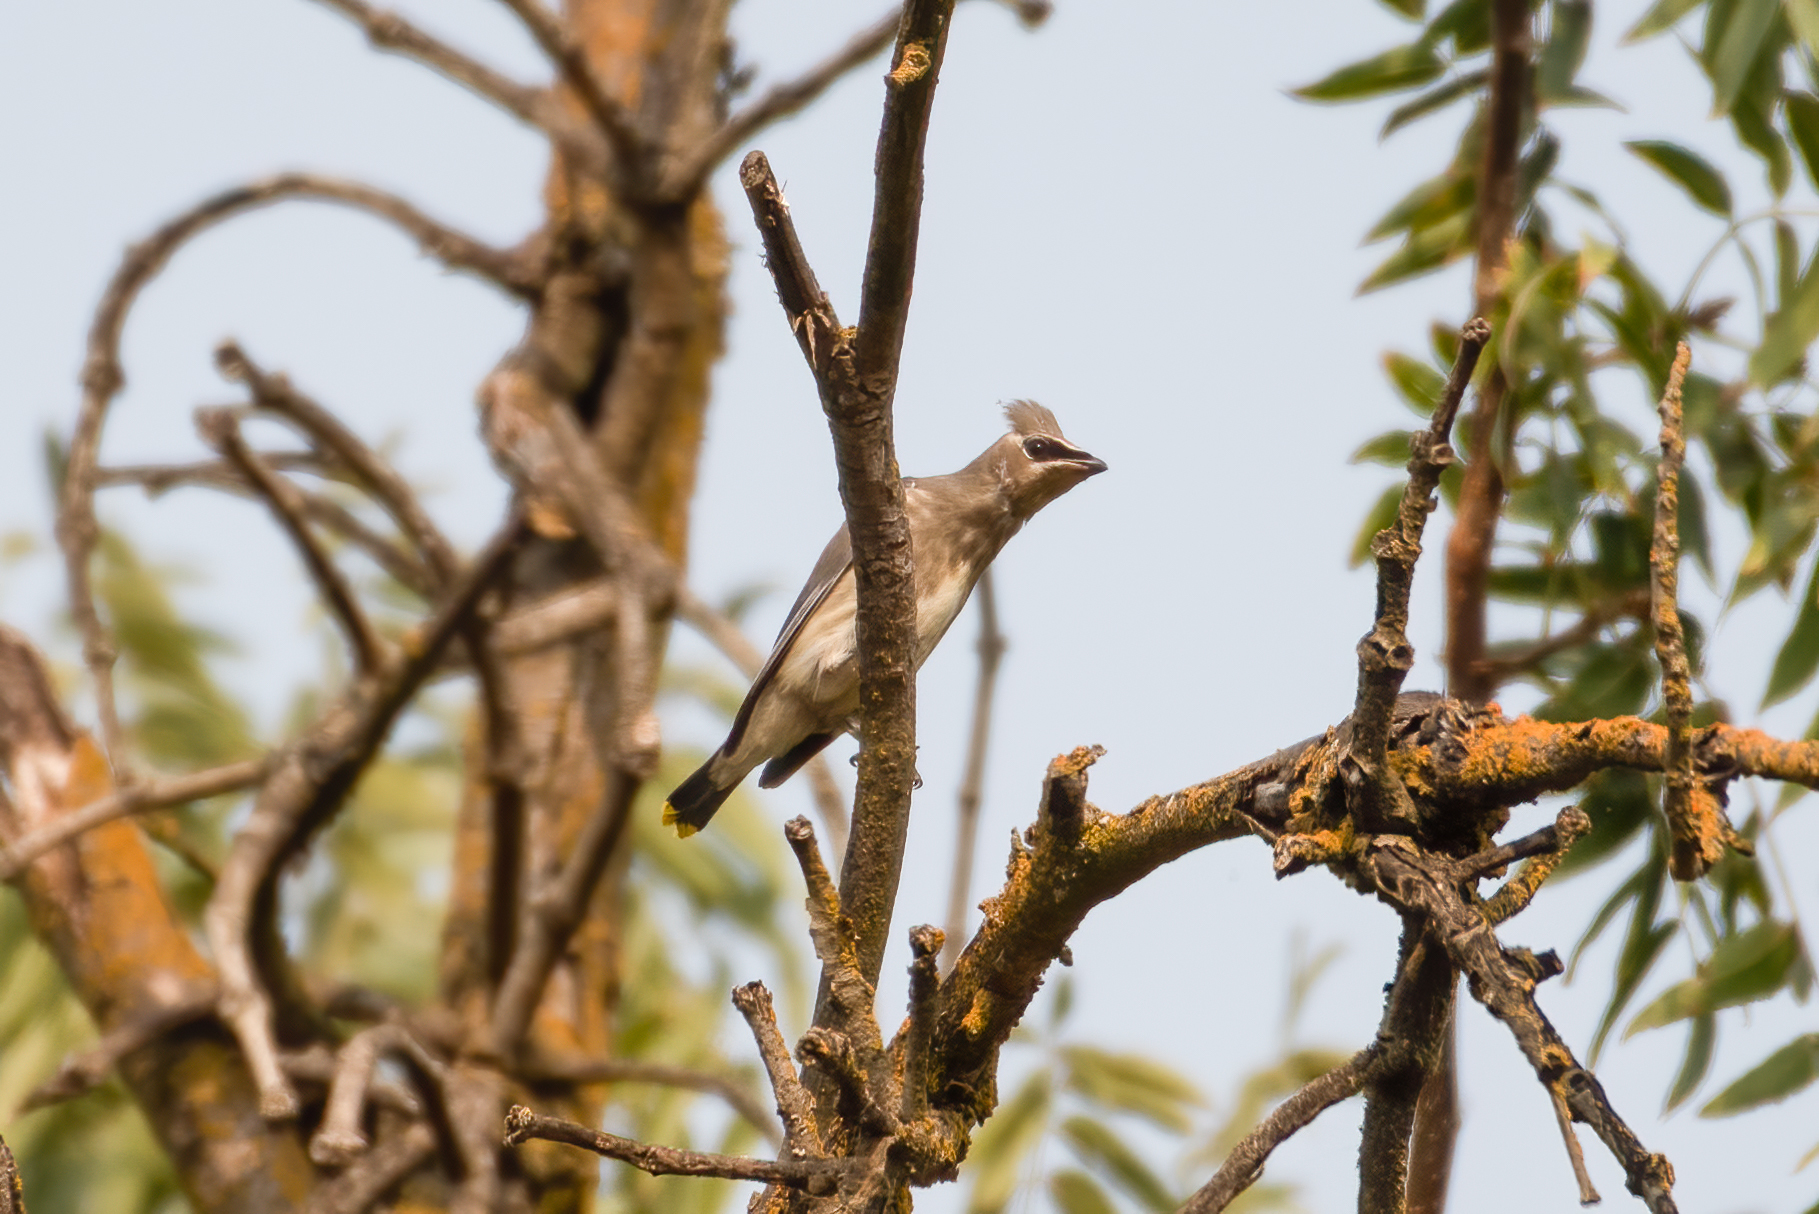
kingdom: Animalia
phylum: Chordata
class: Aves
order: Passeriformes
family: Bombycillidae
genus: Bombycilla
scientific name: Bombycilla cedrorum
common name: Cedar waxwing
